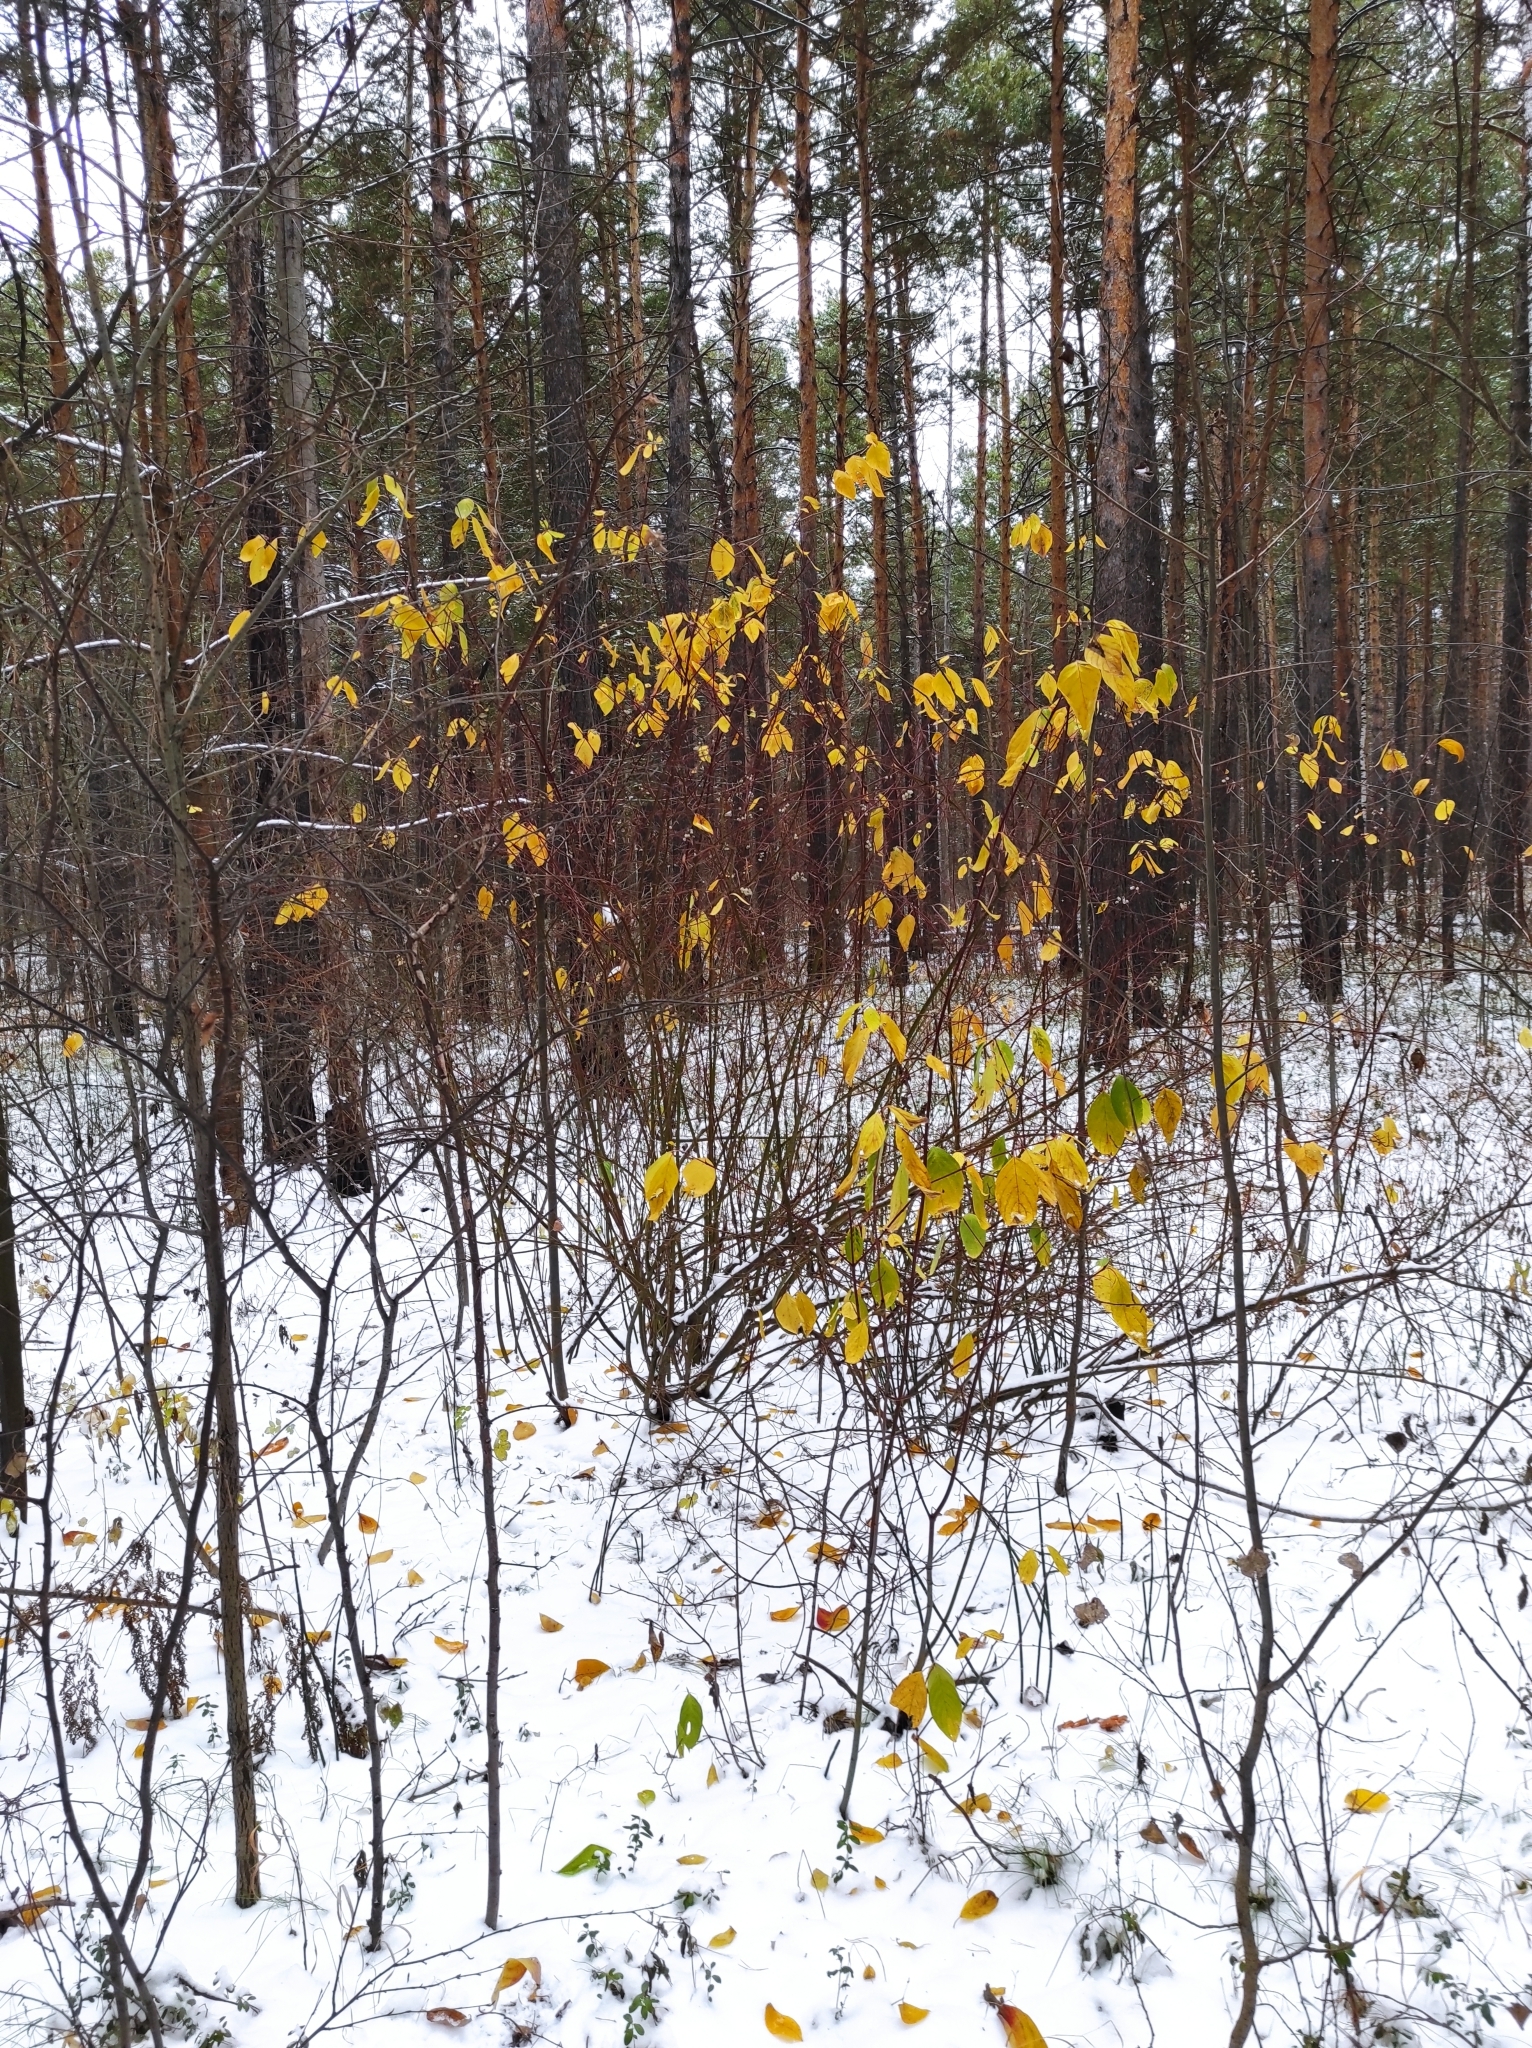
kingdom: Plantae
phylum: Tracheophyta
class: Magnoliopsida
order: Cornales
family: Cornaceae
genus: Cornus
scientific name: Cornus alba
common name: White dogwood
